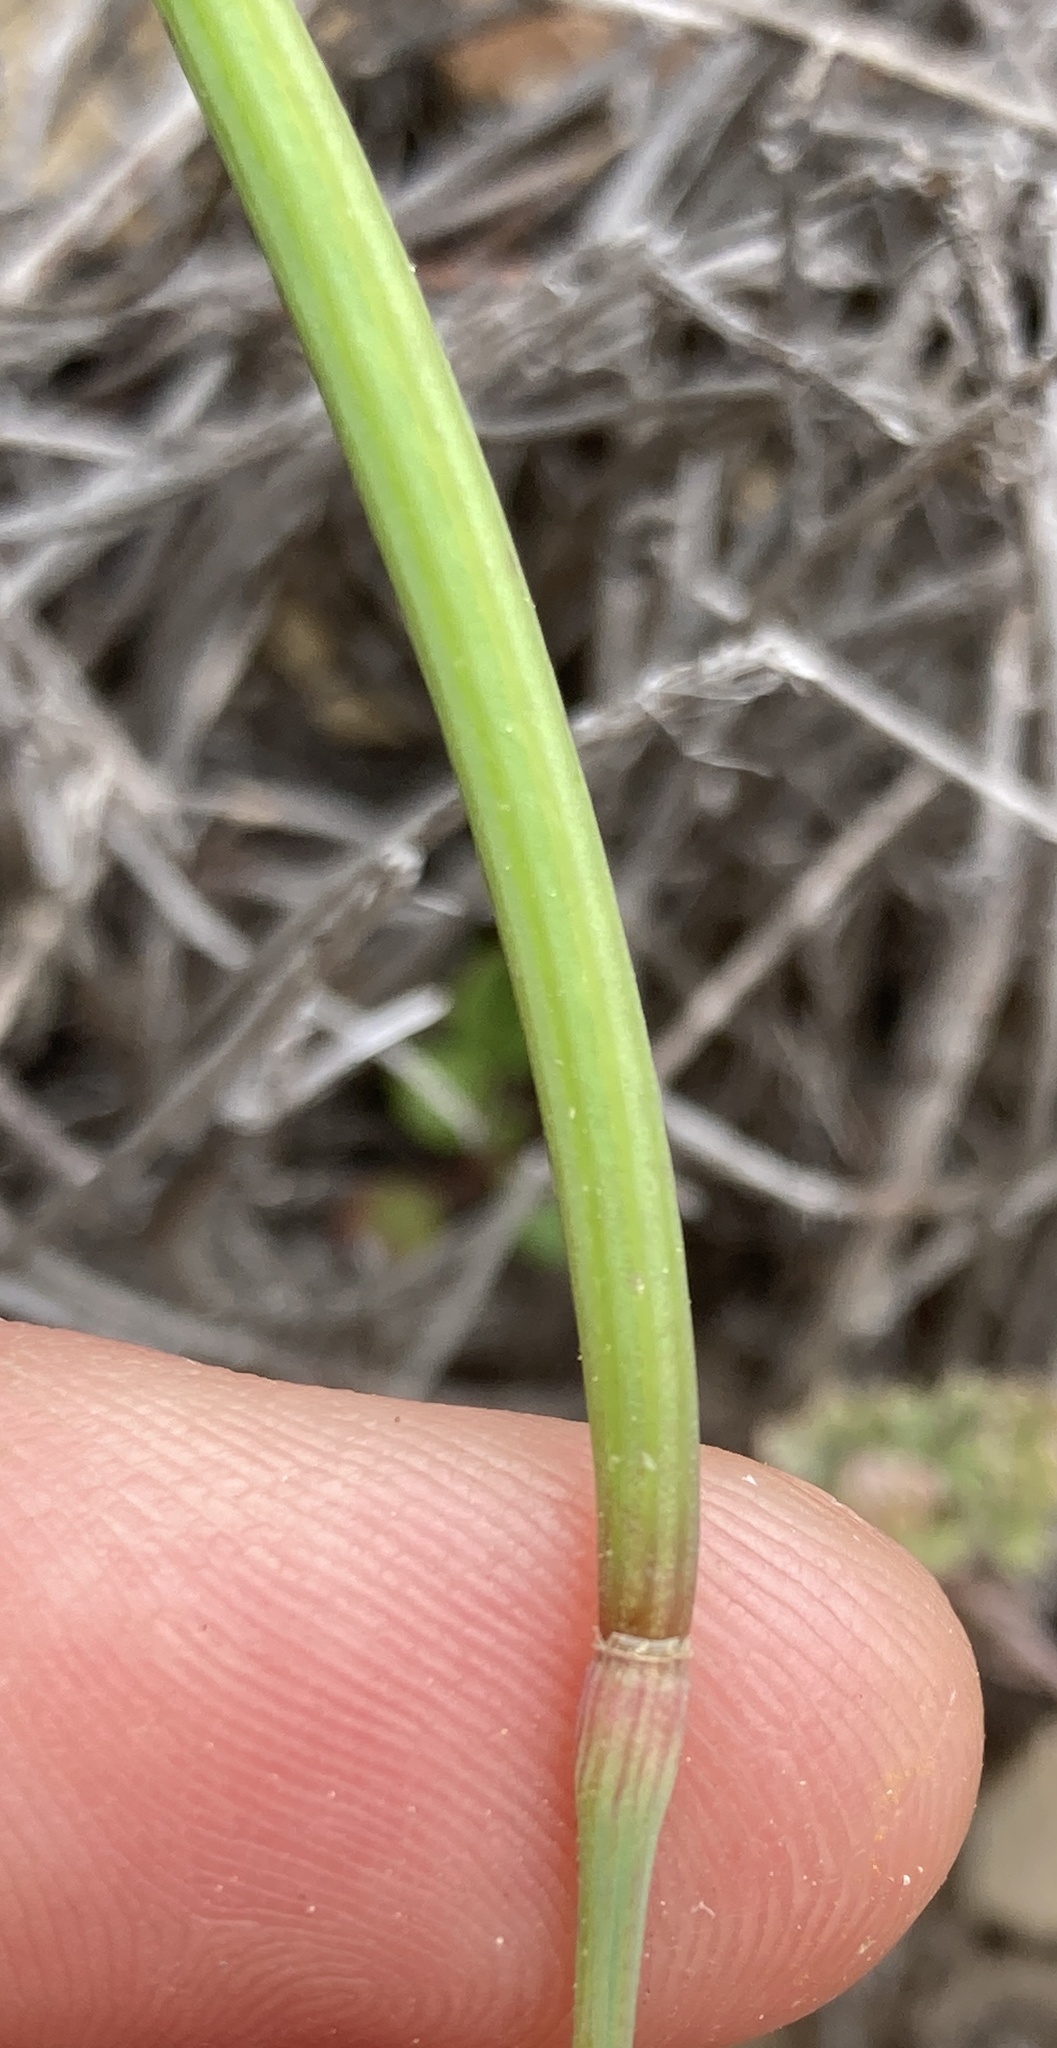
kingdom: Plantae
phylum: Tracheophyta
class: Magnoliopsida
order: Ranunculales
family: Papaveraceae
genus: Eschscholzia
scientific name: Eschscholzia caespitosa
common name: Tufted california-poppy
